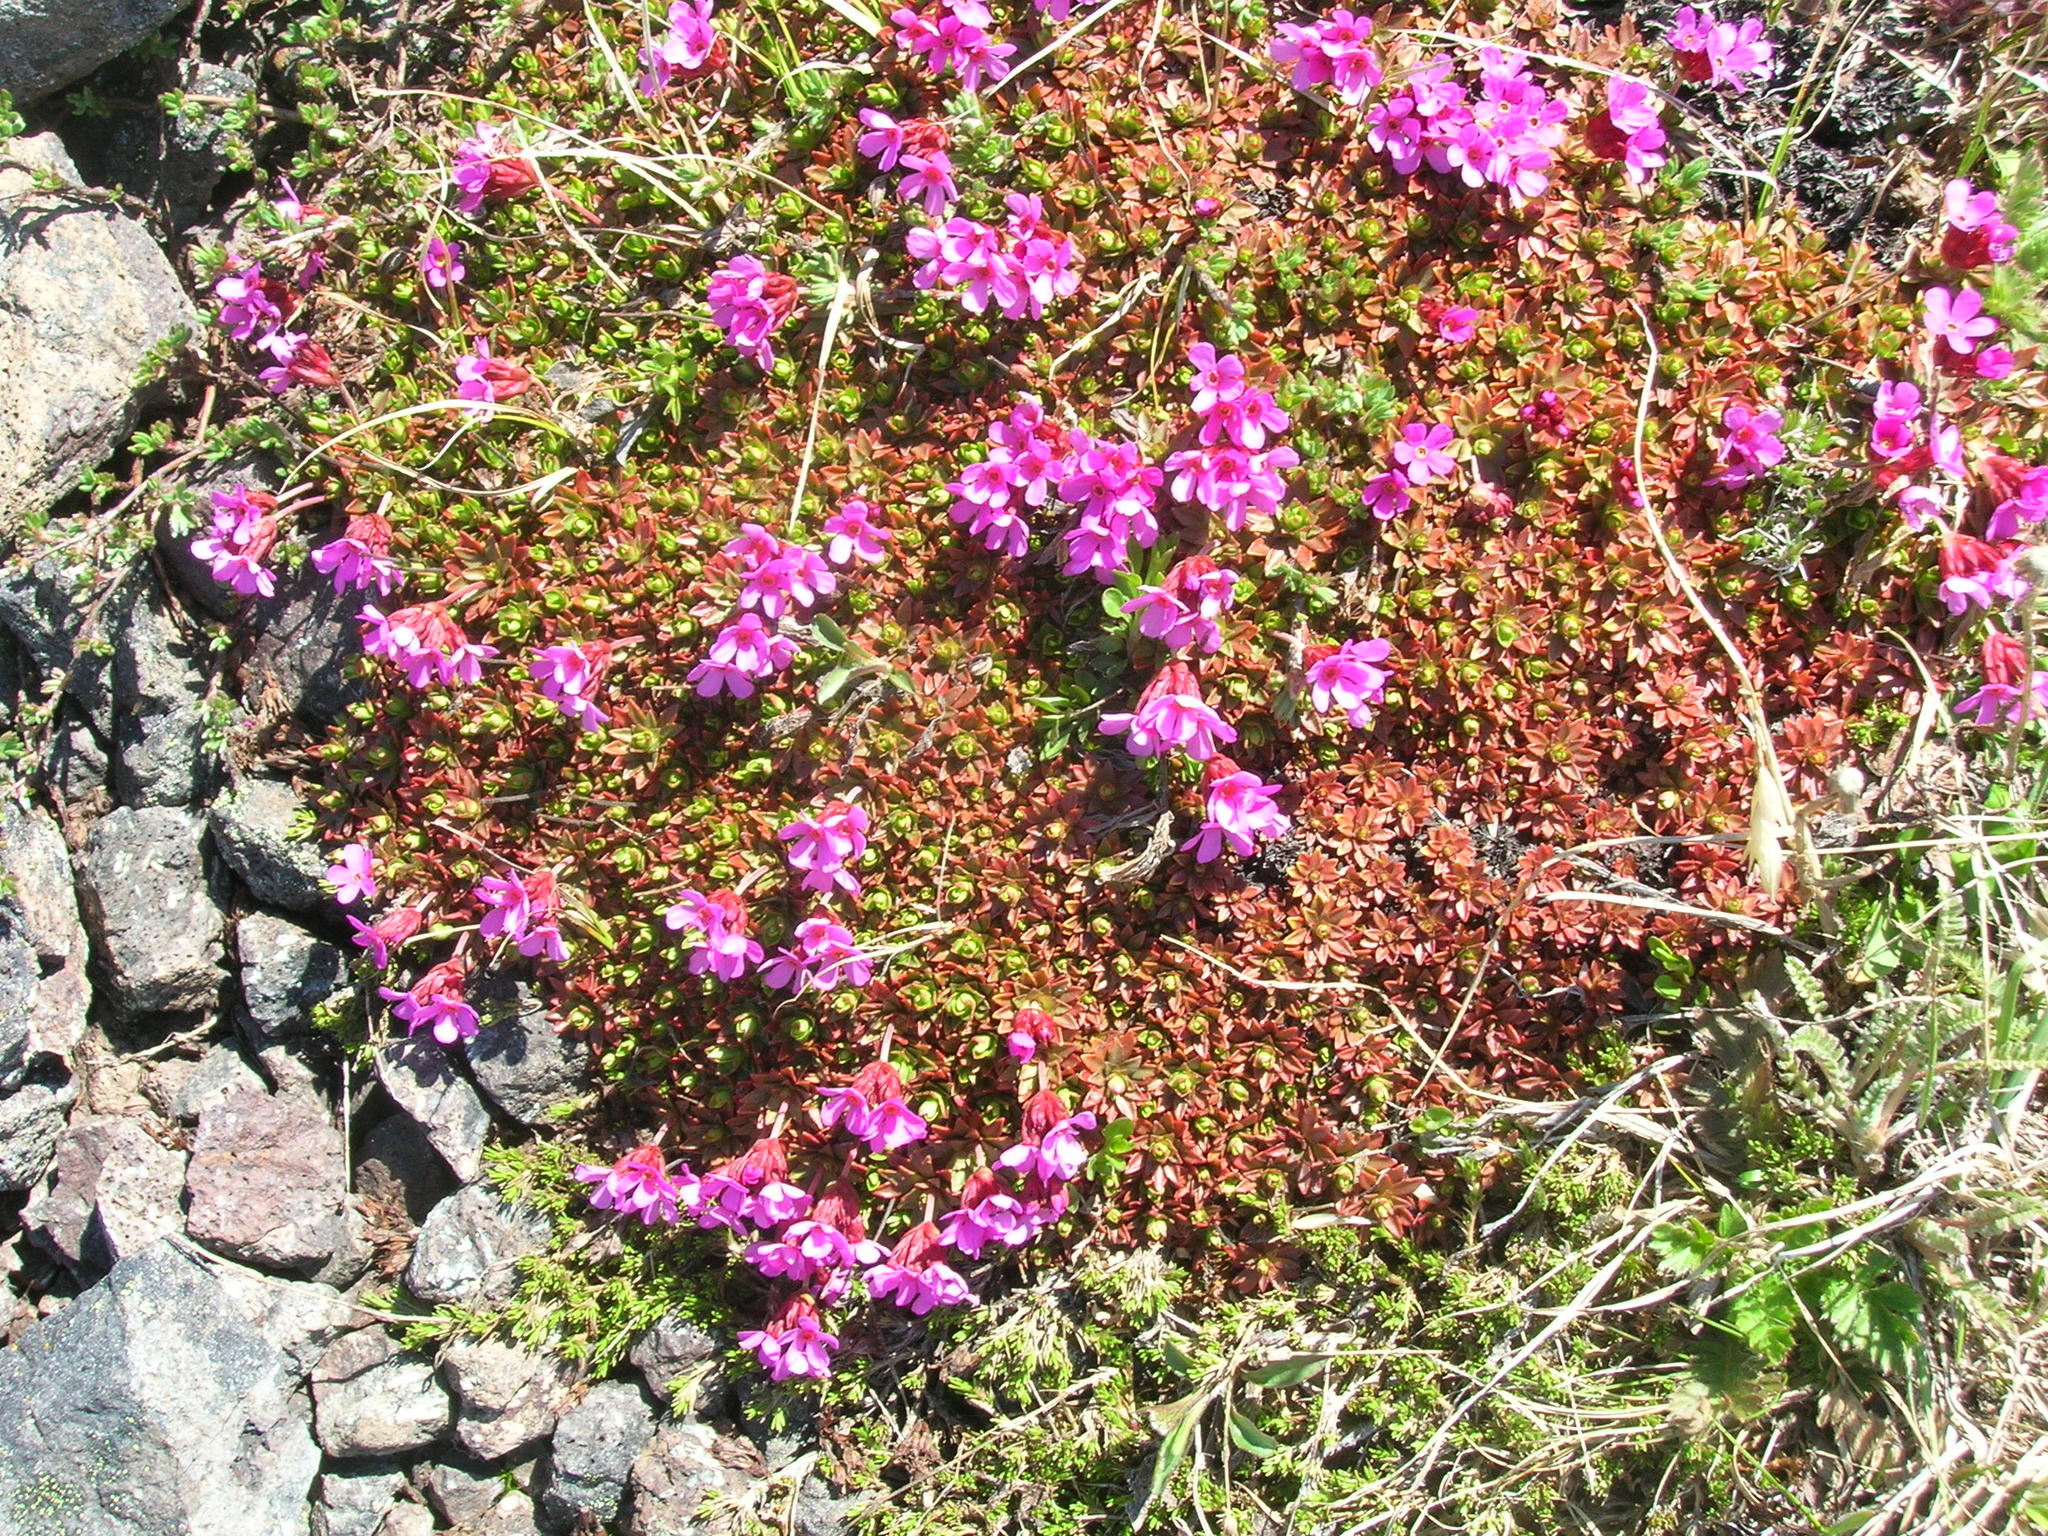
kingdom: Plantae
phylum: Tracheophyta
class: Magnoliopsida
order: Ericales
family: Primulaceae
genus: Androsace
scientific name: Androsace laevigata
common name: Cliff dwarf-primrose
